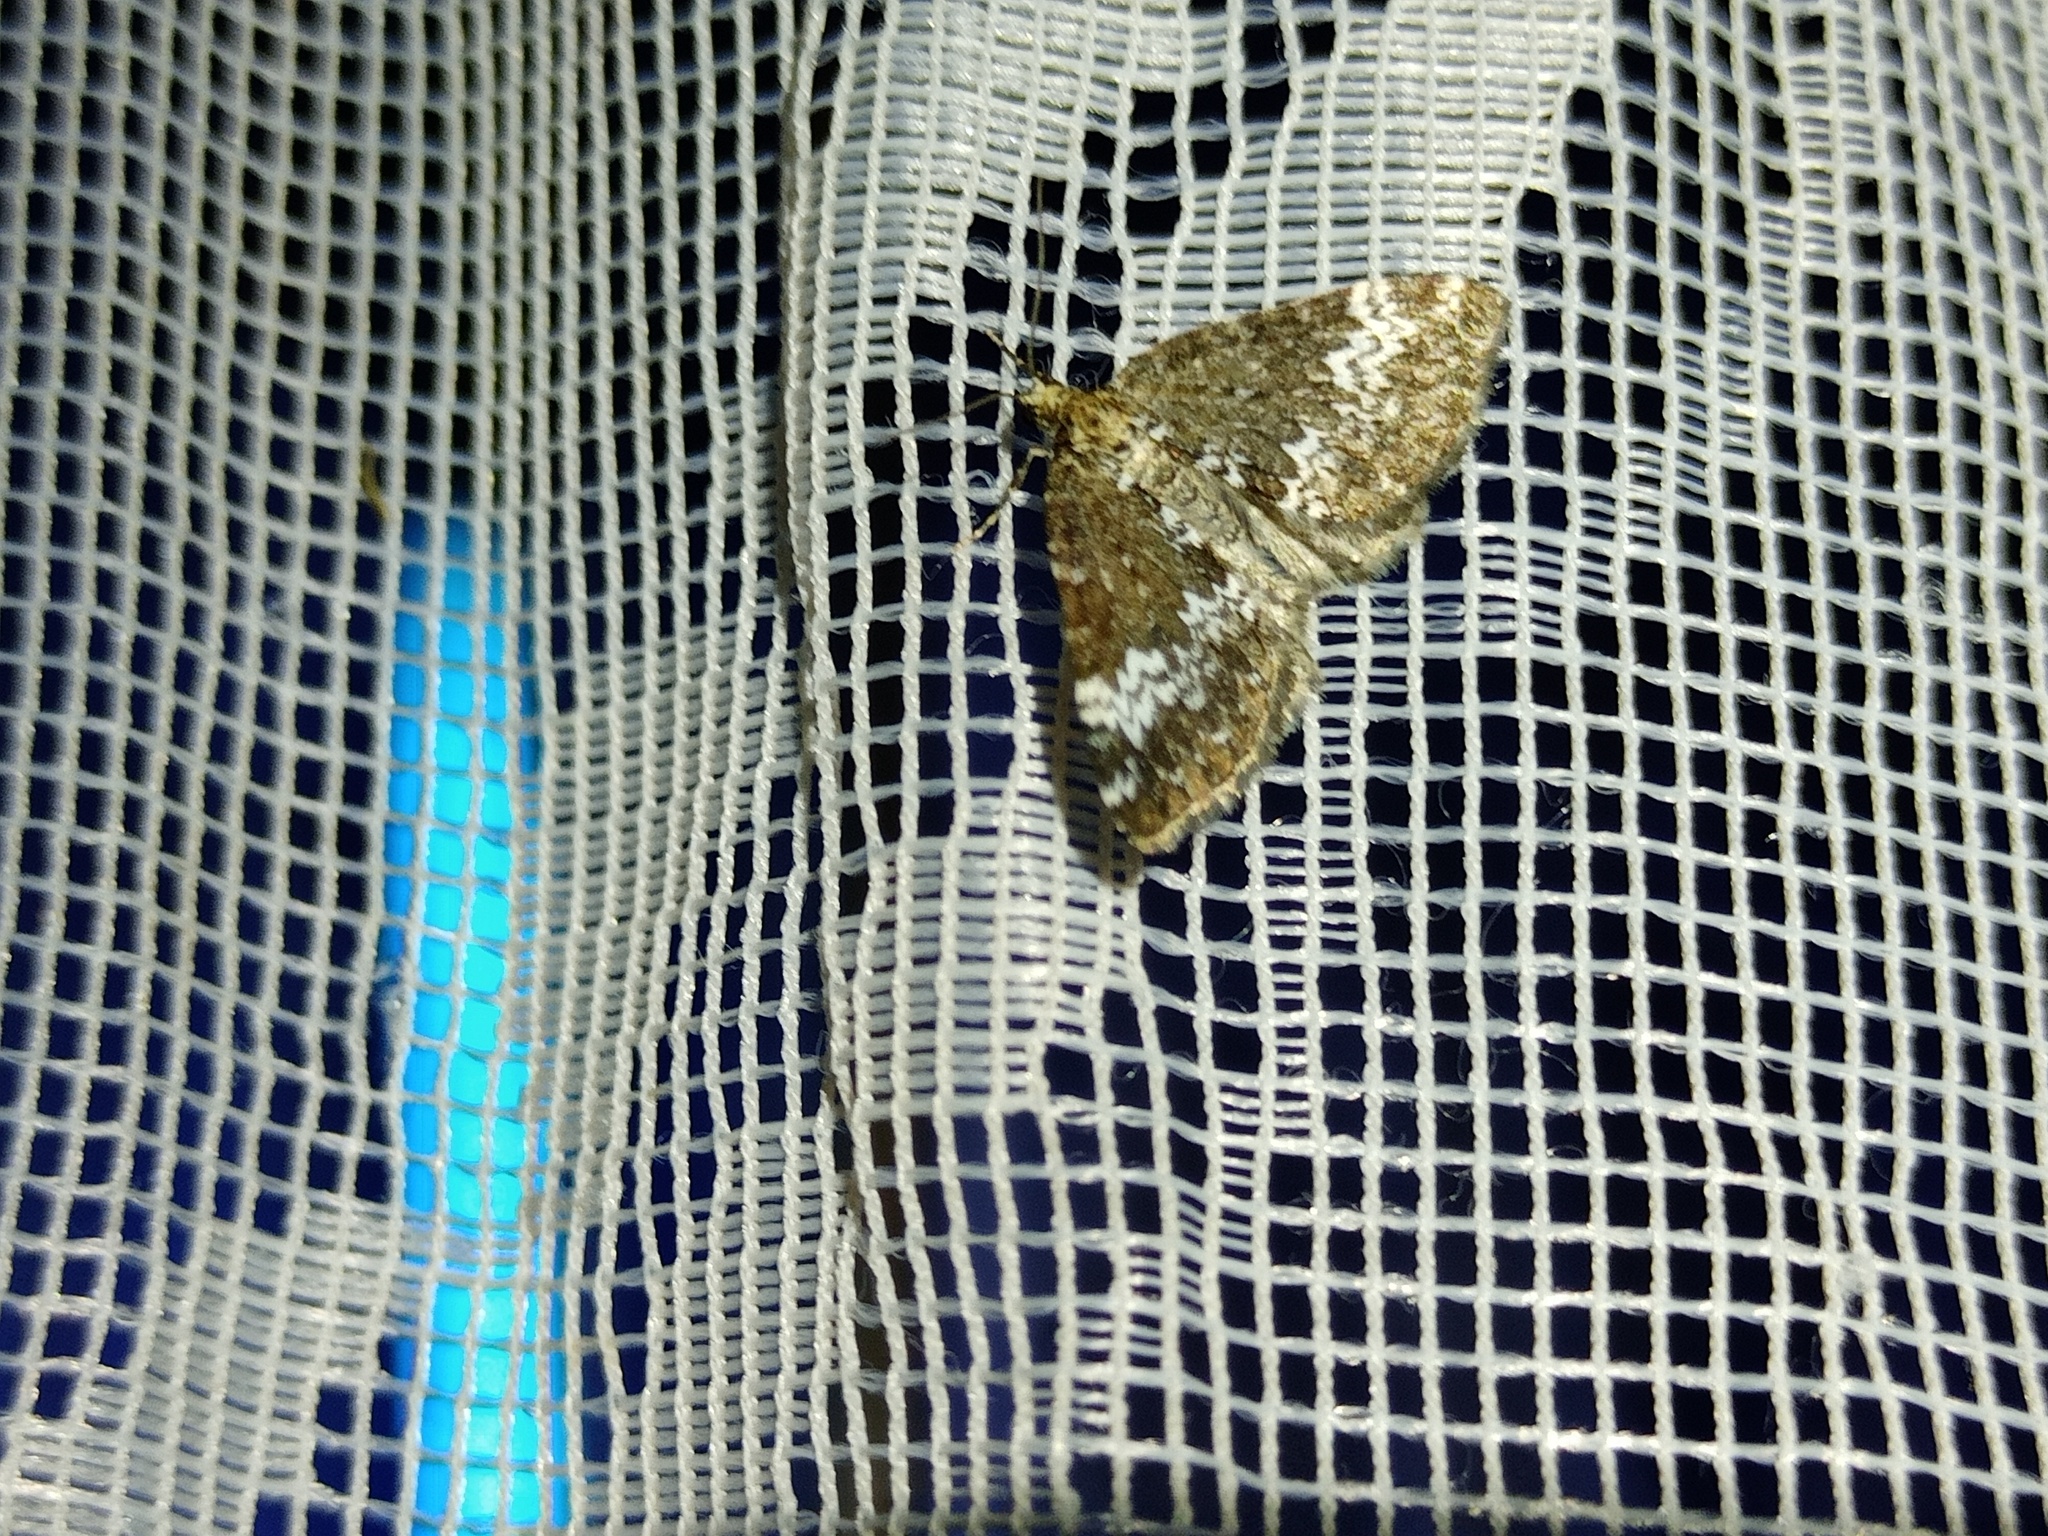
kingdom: Animalia
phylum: Arthropoda
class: Insecta
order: Lepidoptera
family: Geometridae
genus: Perizoma
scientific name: Perizoma alchemillata
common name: Small rivulet
